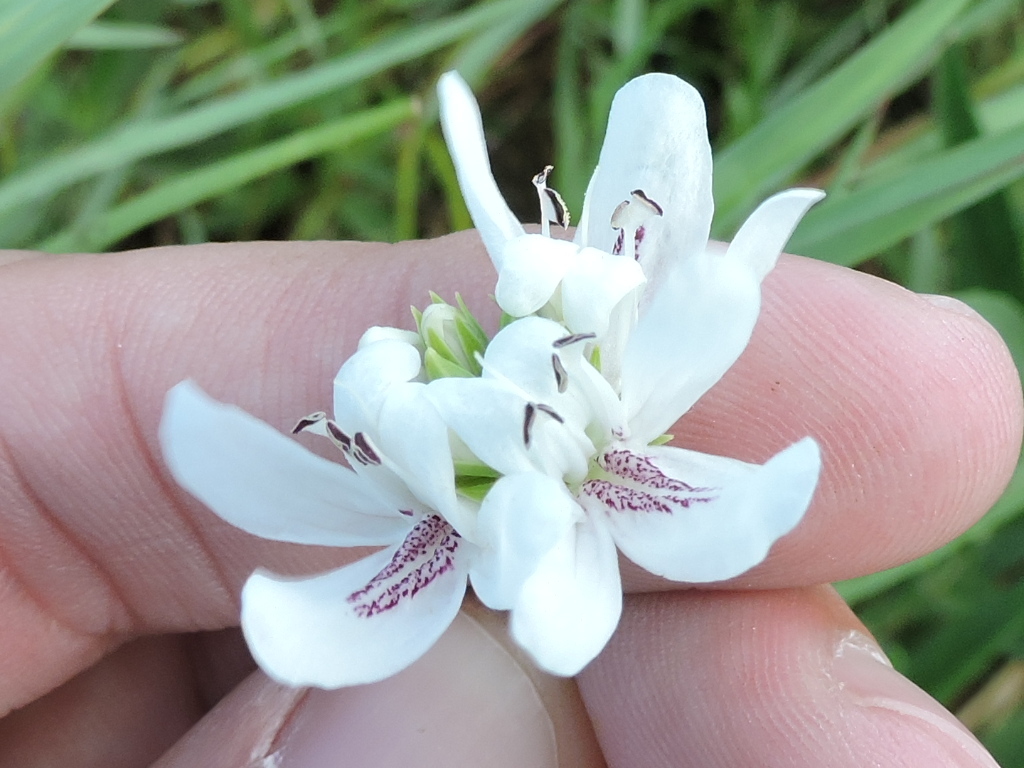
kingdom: Plantae
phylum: Tracheophyta
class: Magnoliopsida
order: Lamiales
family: Acanthaceae
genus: Dianthera
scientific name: Dianthera americana
